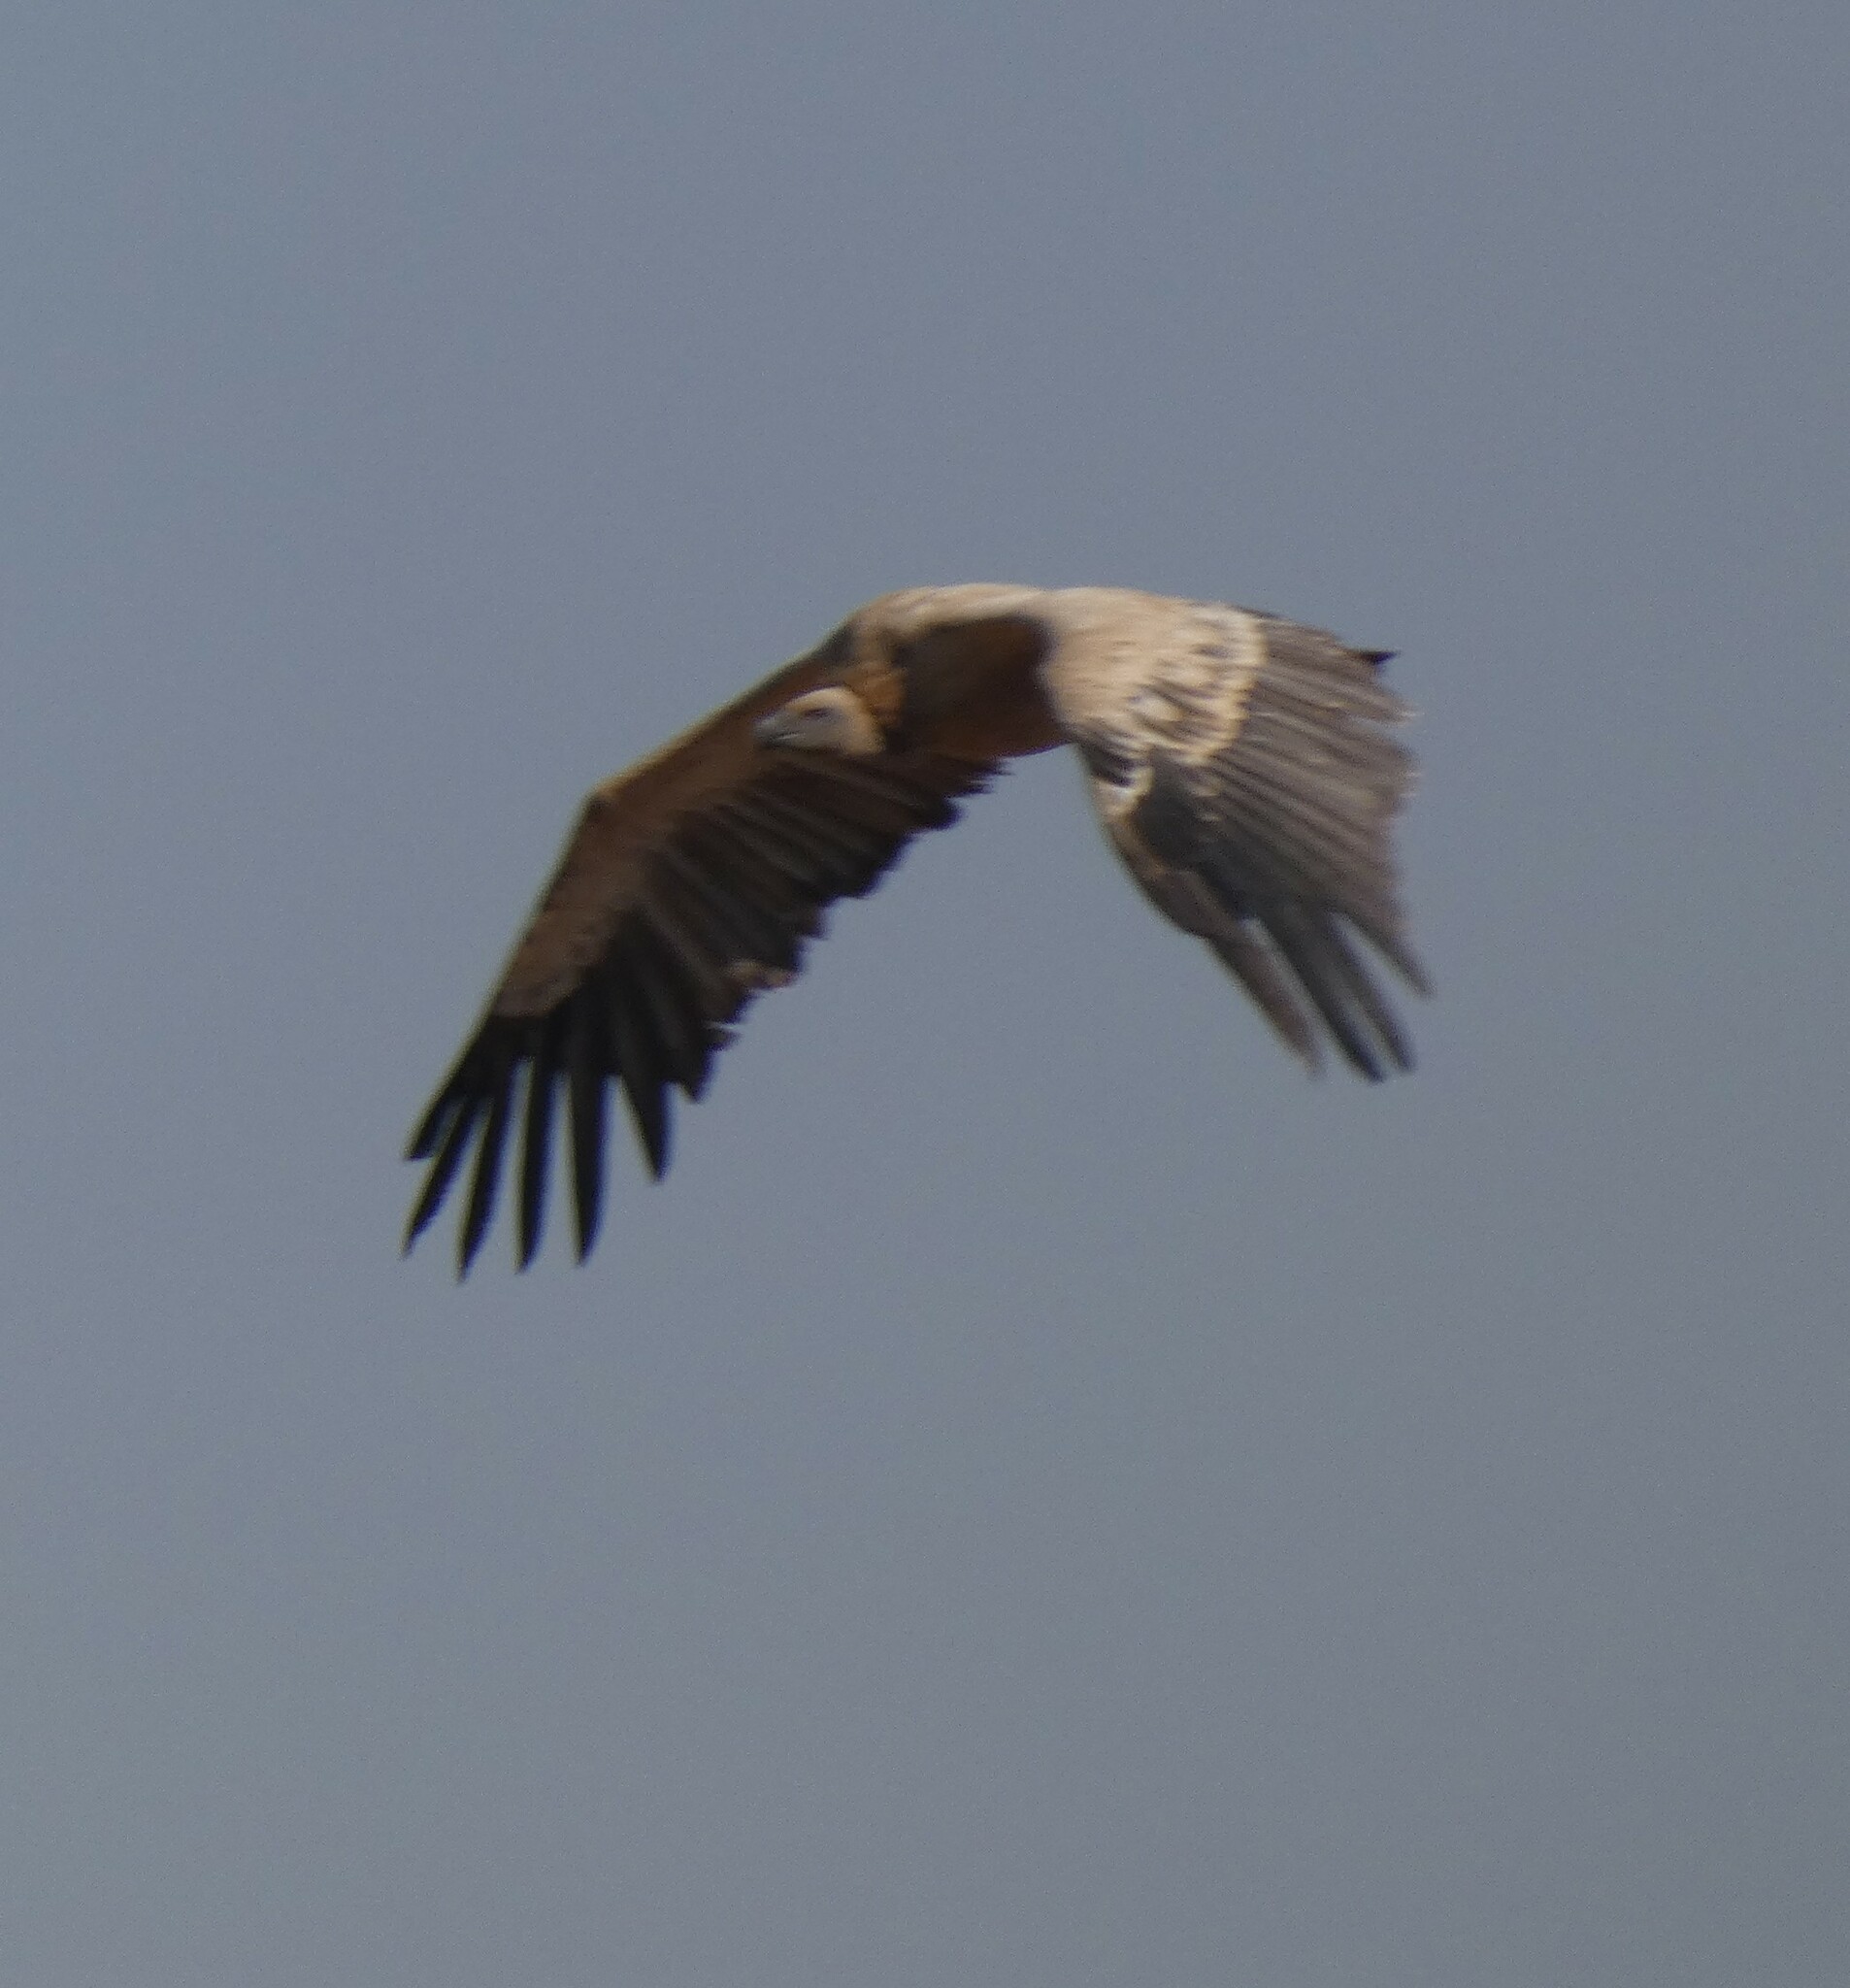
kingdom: Animalia
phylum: Chordata
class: Aves
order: Accipitriformes
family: Accipitridae
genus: Gyps
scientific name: Gyps coprotheres
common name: Cape vulture
